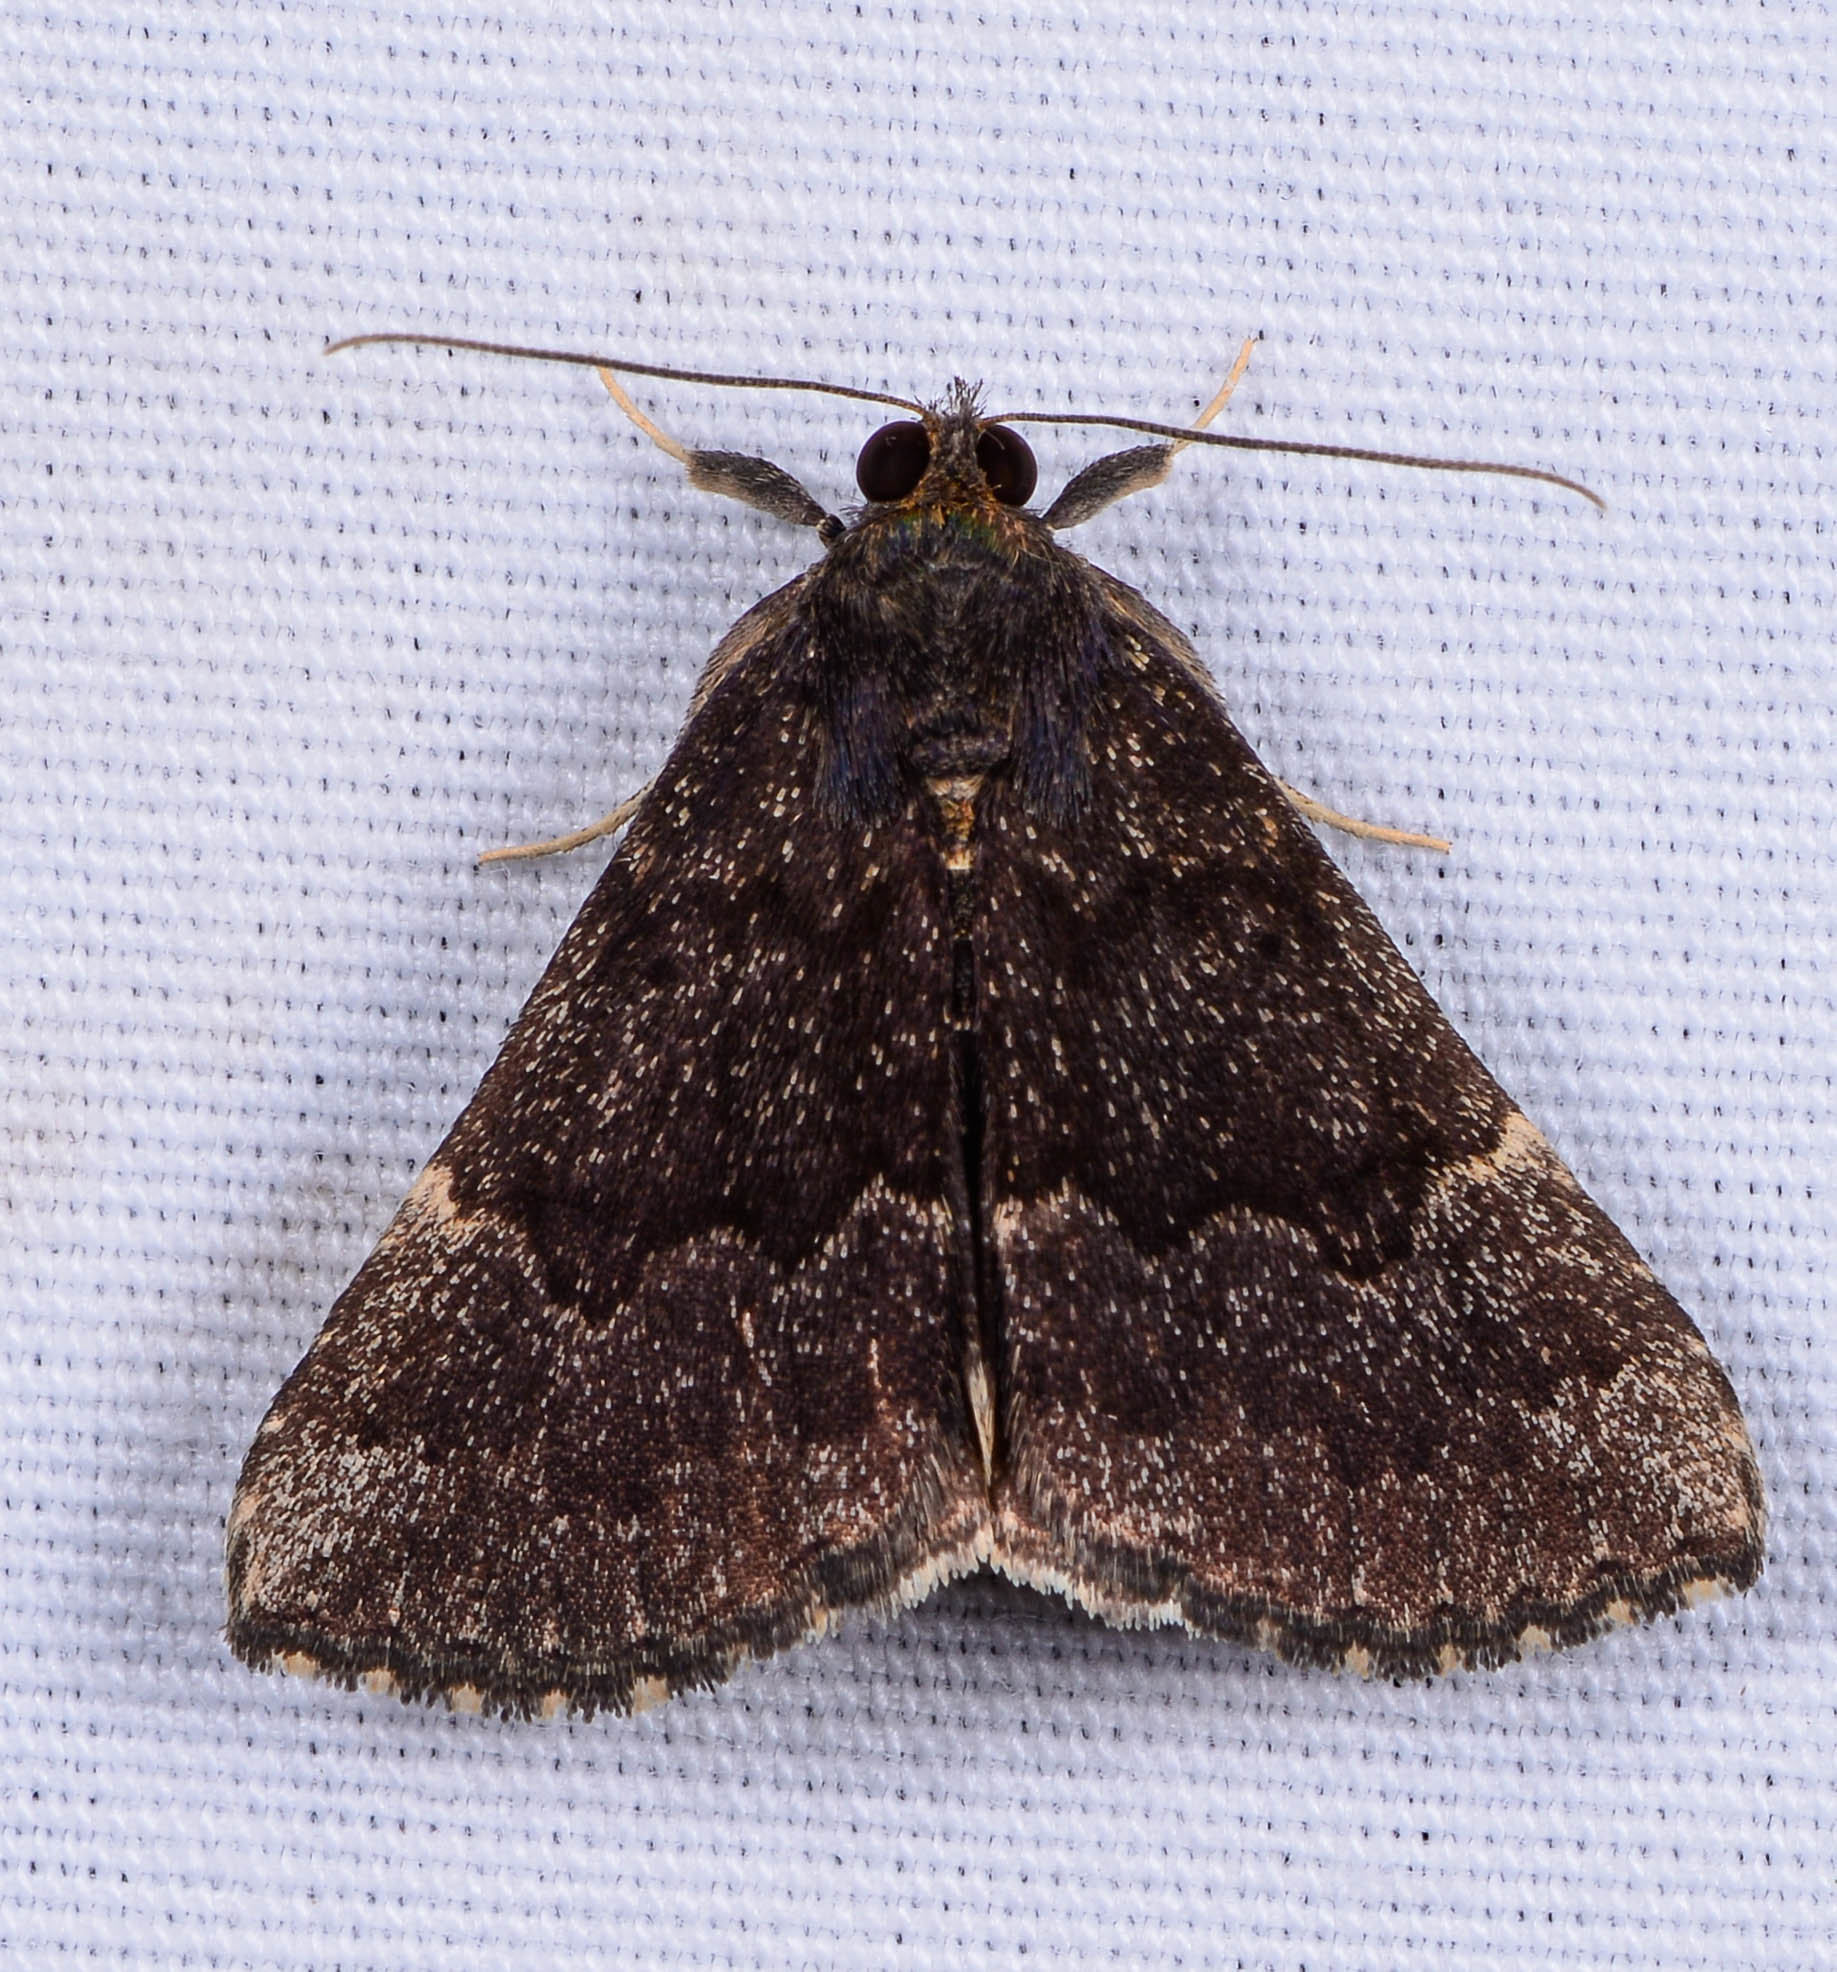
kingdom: Animalia
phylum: Arthropoda
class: Insecta
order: Lepidoptera
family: Erebidae
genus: Hypena
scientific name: Hypena sordidula
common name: Sordid snout
